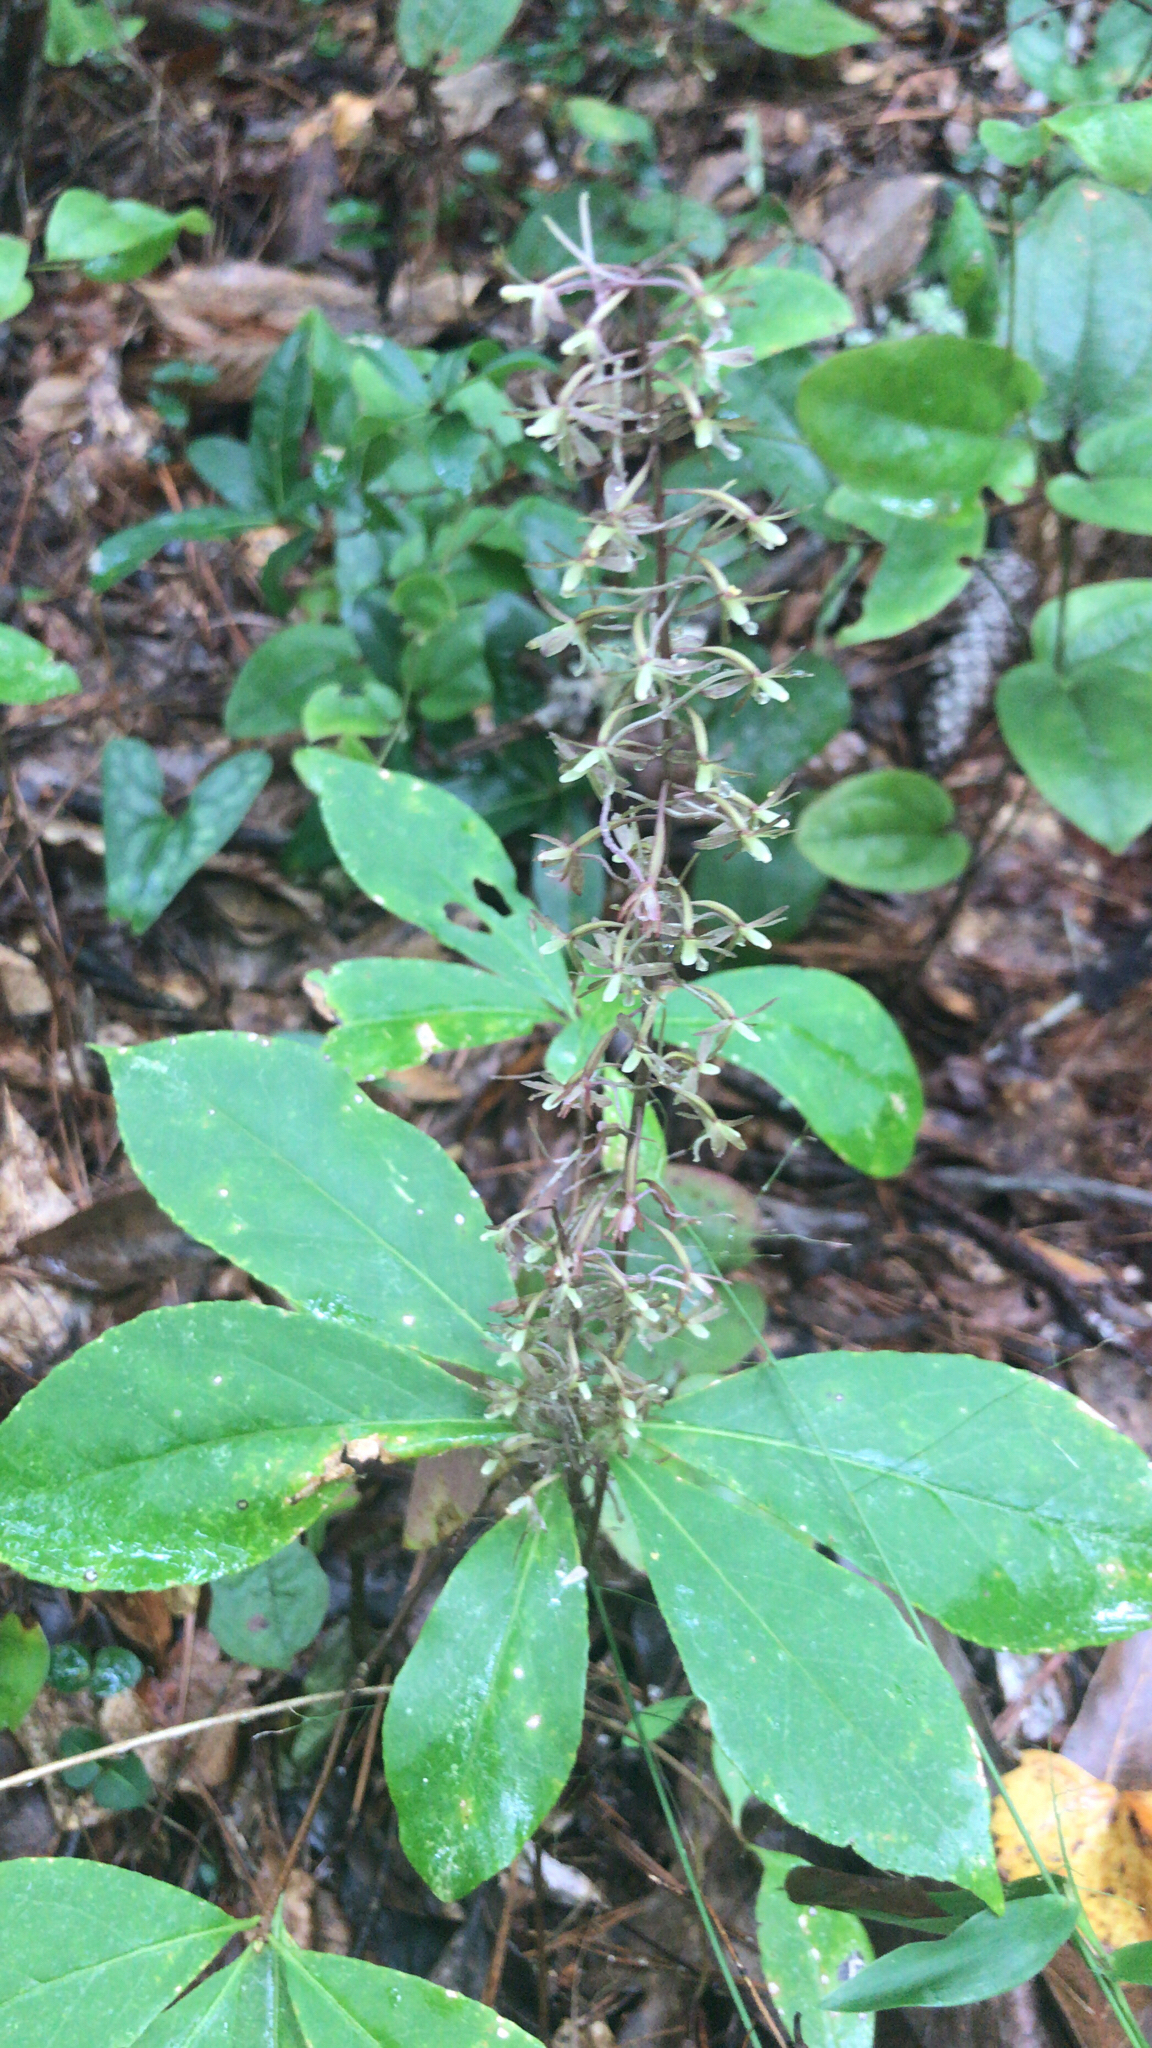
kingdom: Plantae
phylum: Tracheophyta
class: Liliopsida
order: Asparagales
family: Orchidaceae
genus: Tipularia
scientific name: Tipularia discolor
